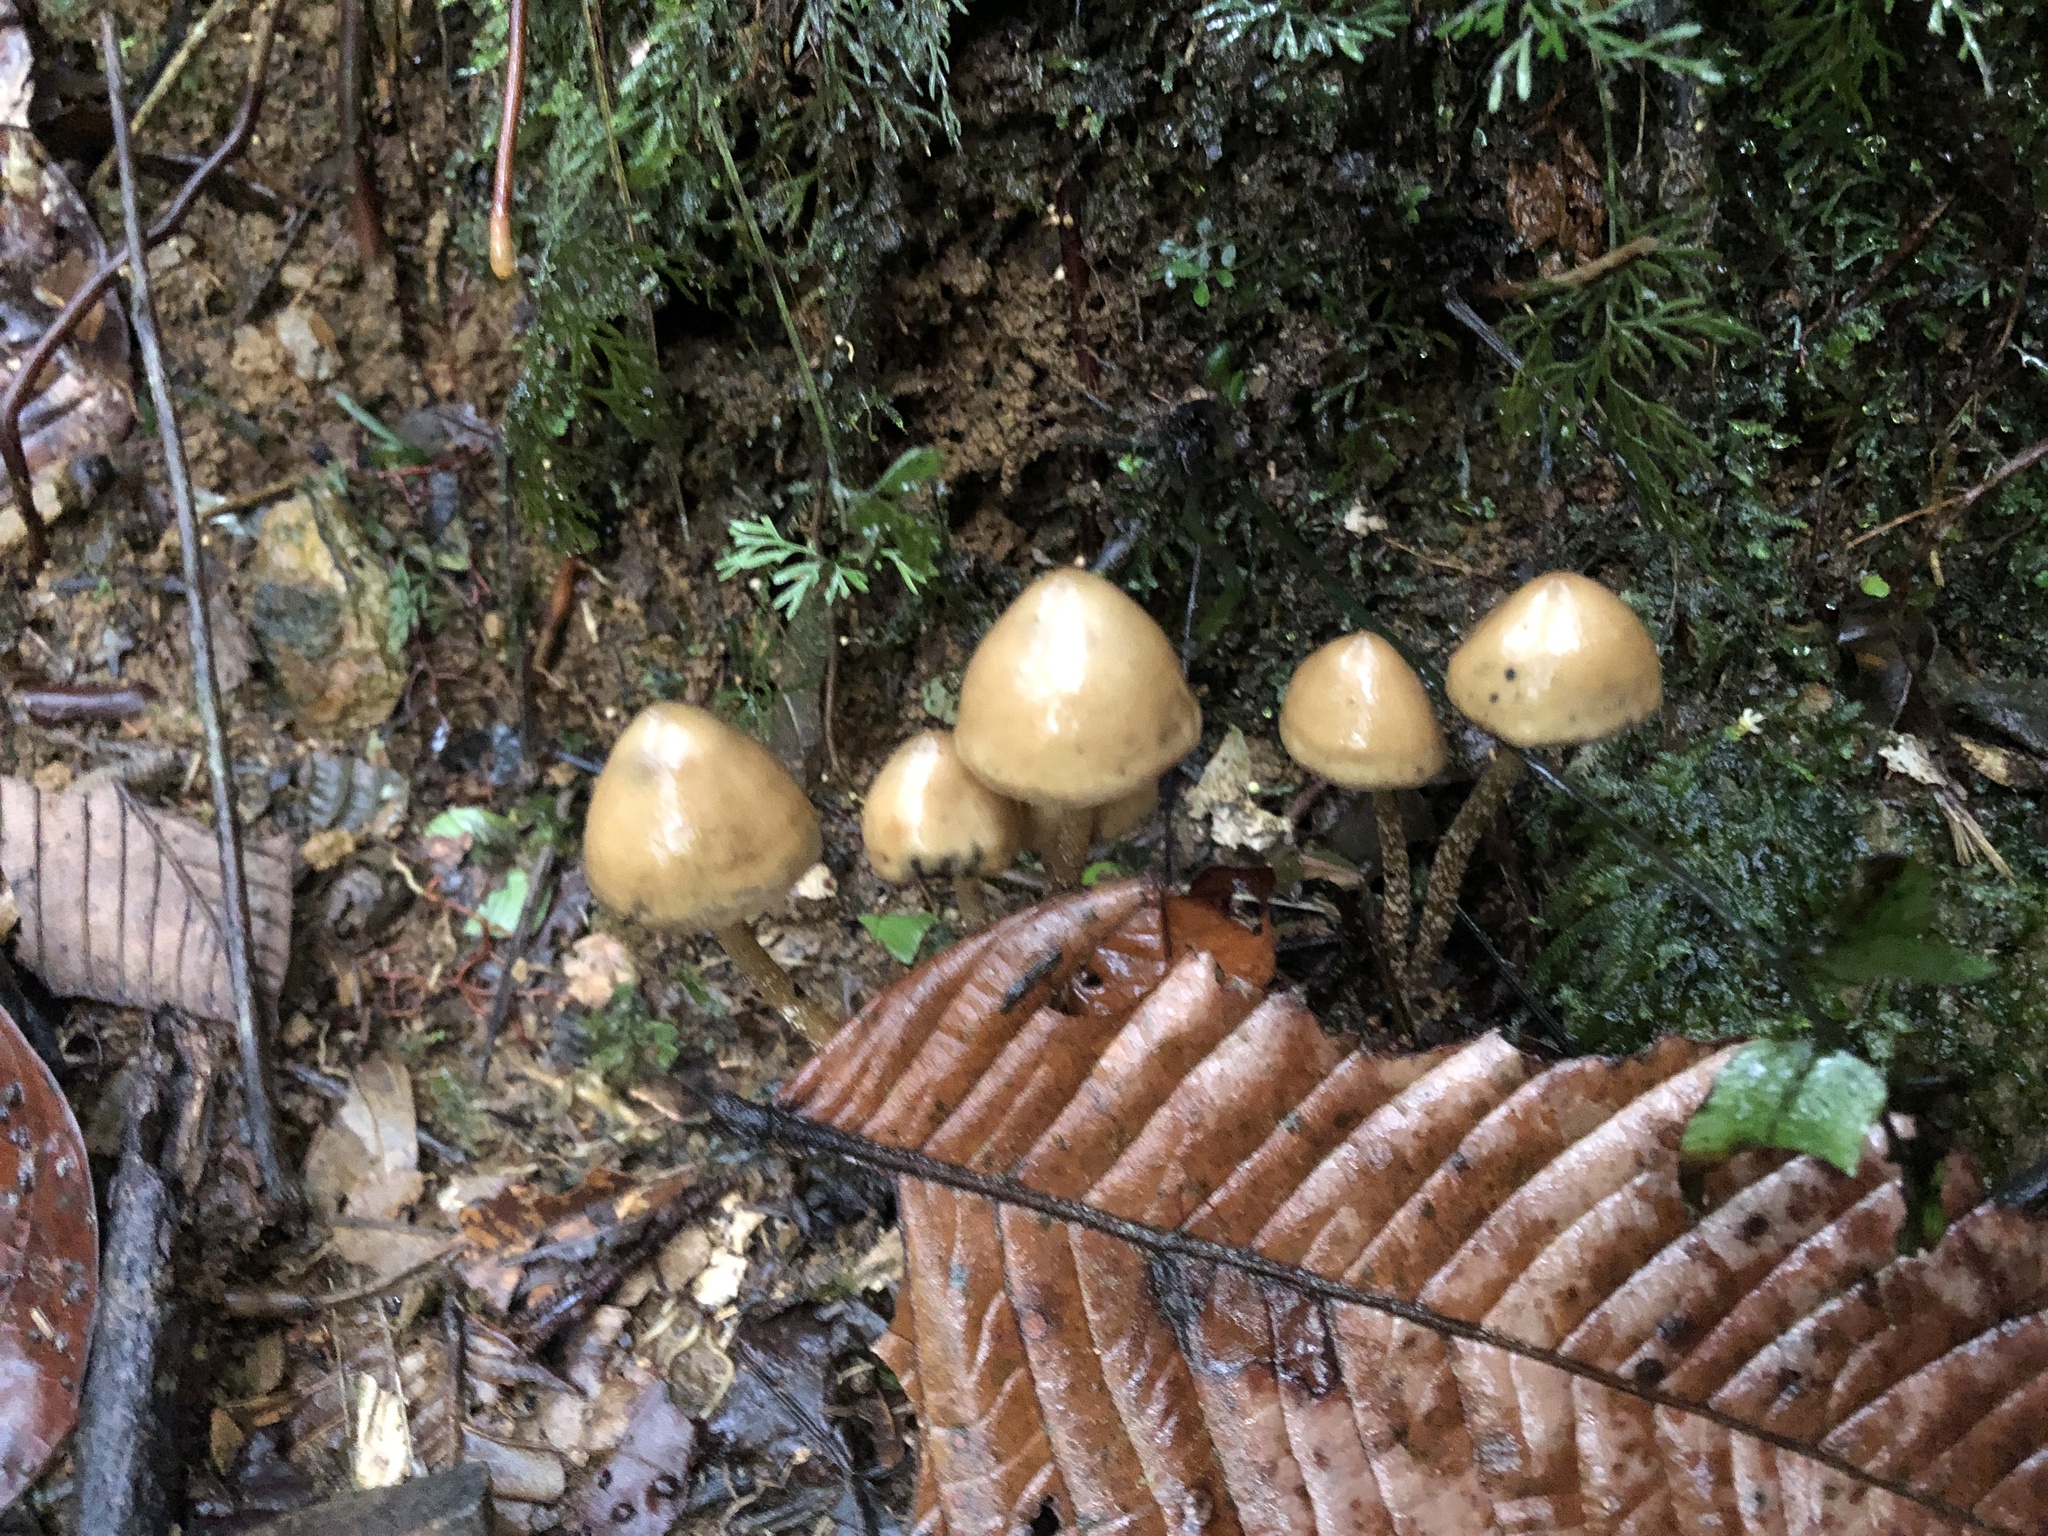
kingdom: Fungi
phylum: Basidiomycota
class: Agaricomycetes
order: Agaricales
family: Hymenogastraceae
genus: Psilocybe
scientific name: Psilocybe zapotecorum
